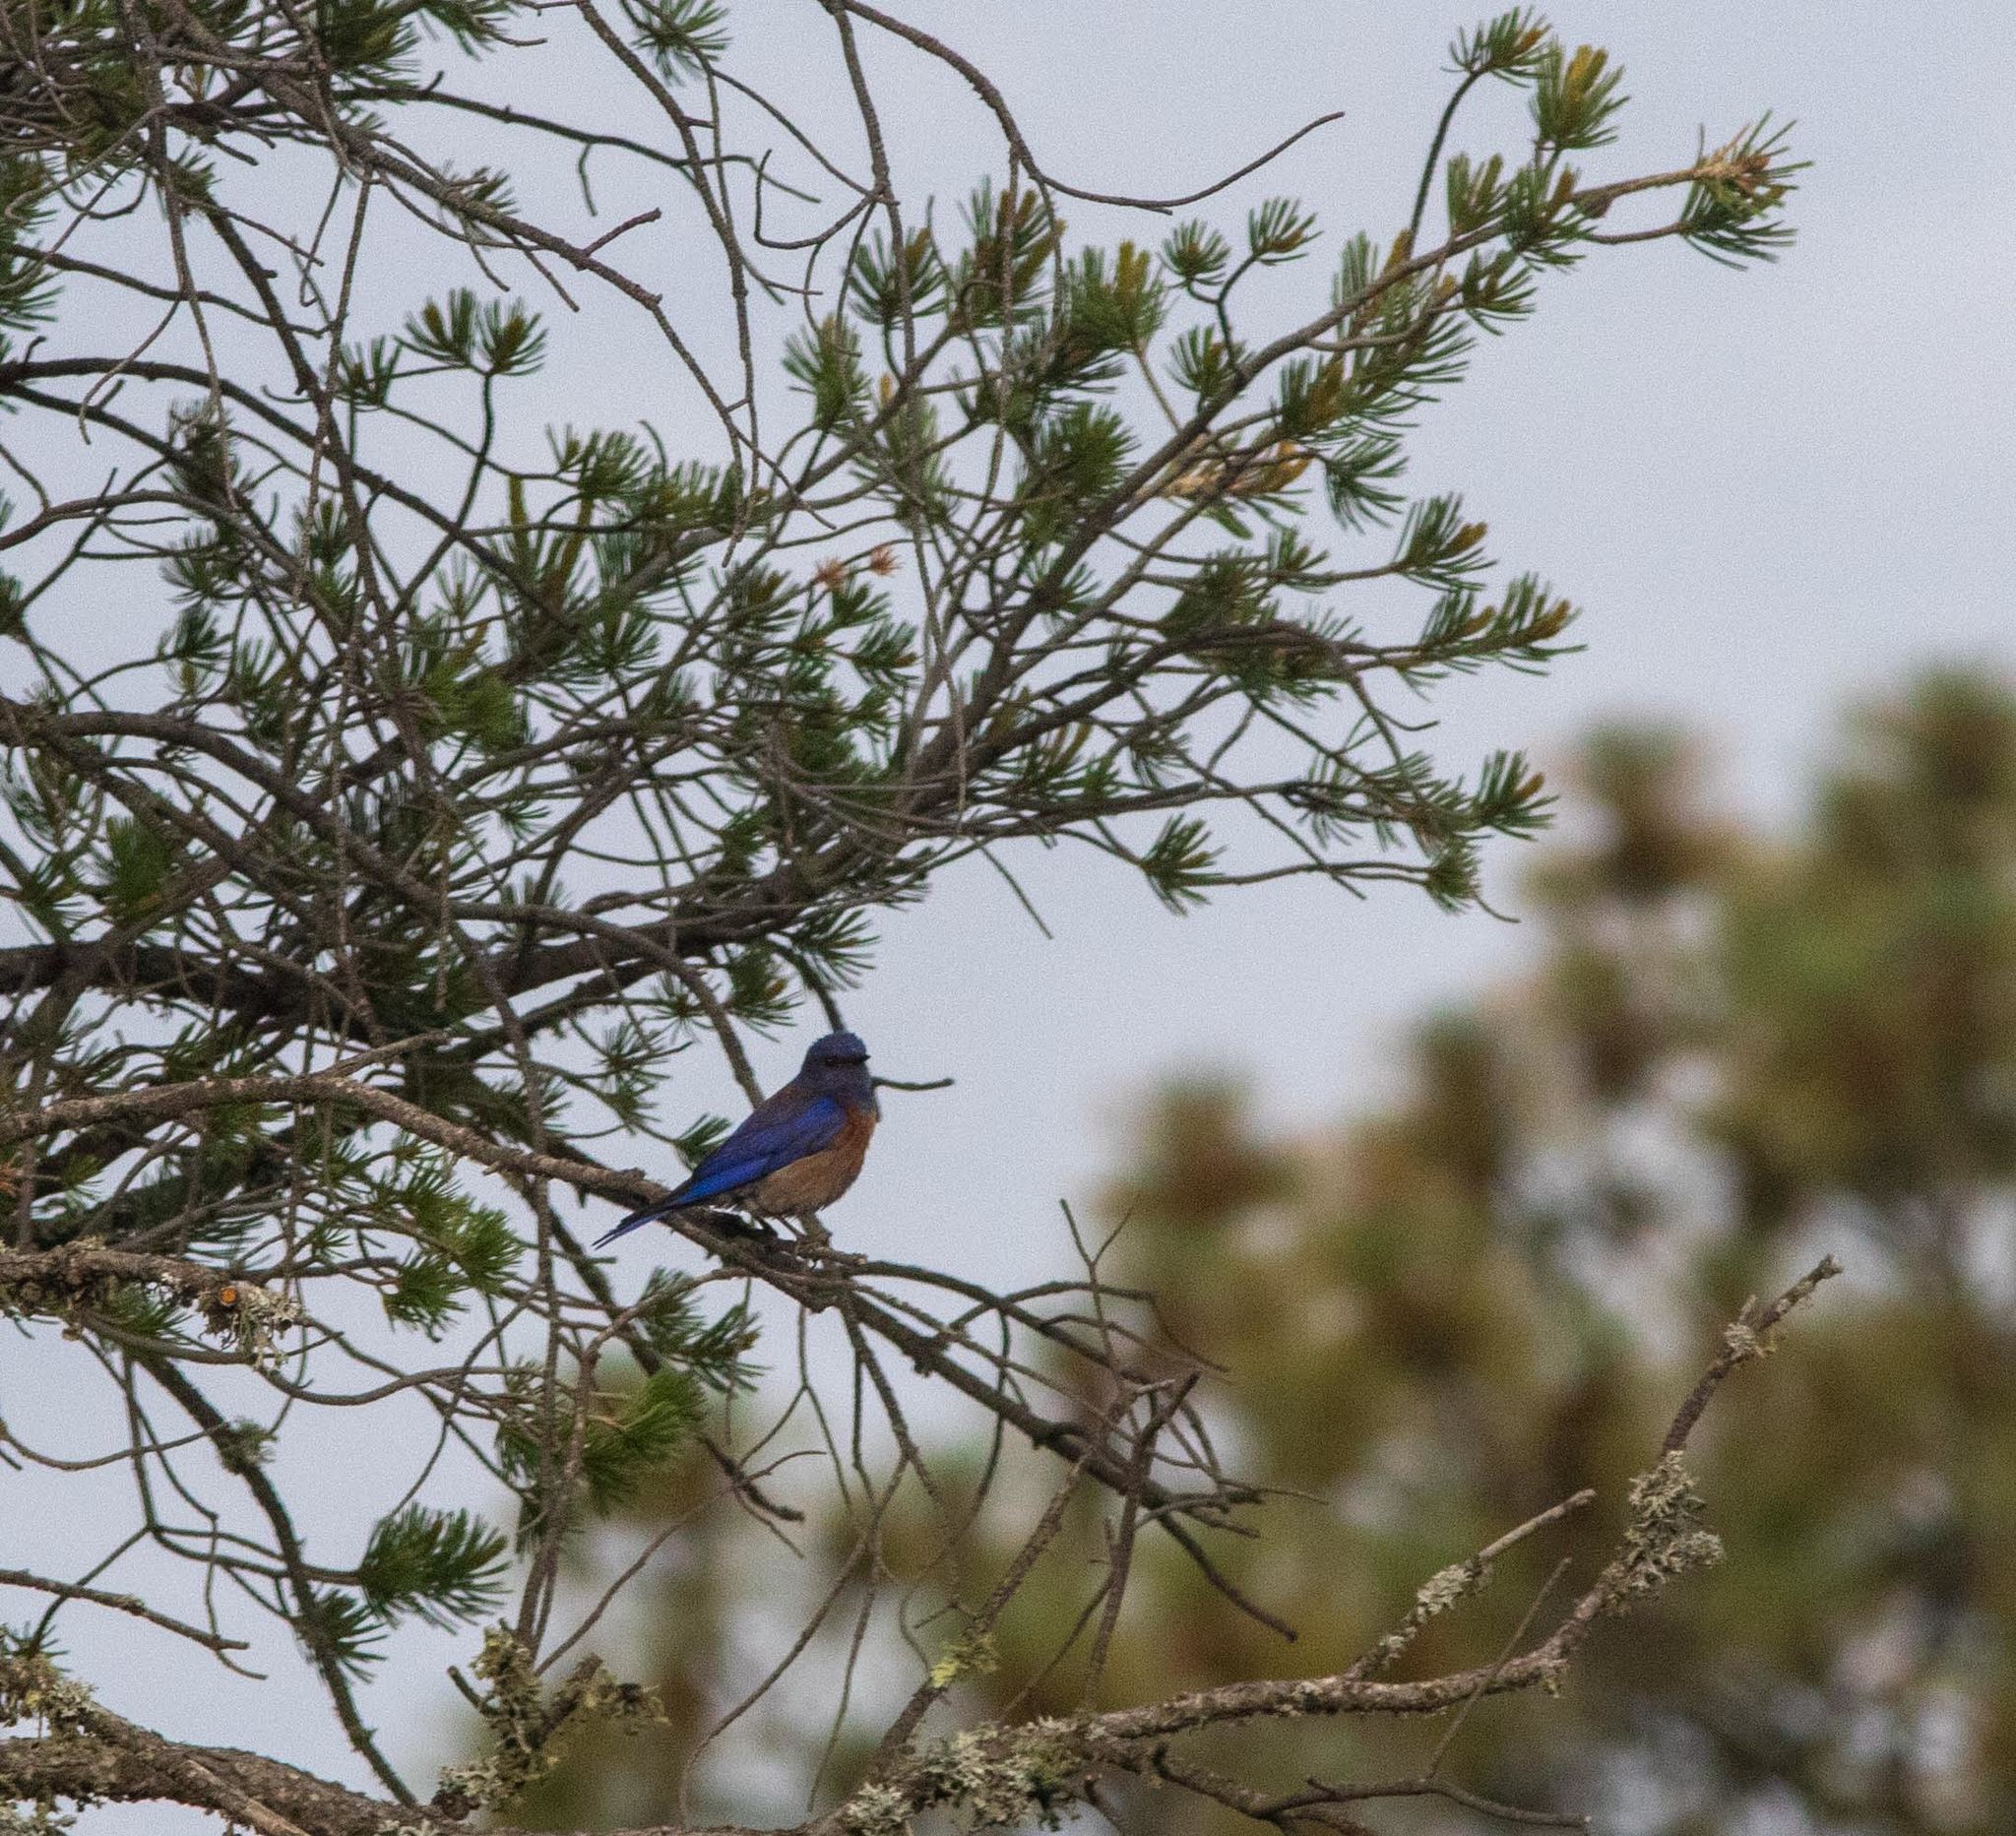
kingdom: Animalia
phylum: Chordata
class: Aves
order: Passeriformes
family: Turdidae
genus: Sialia
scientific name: Sialia mexicana
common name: Western bluebird
